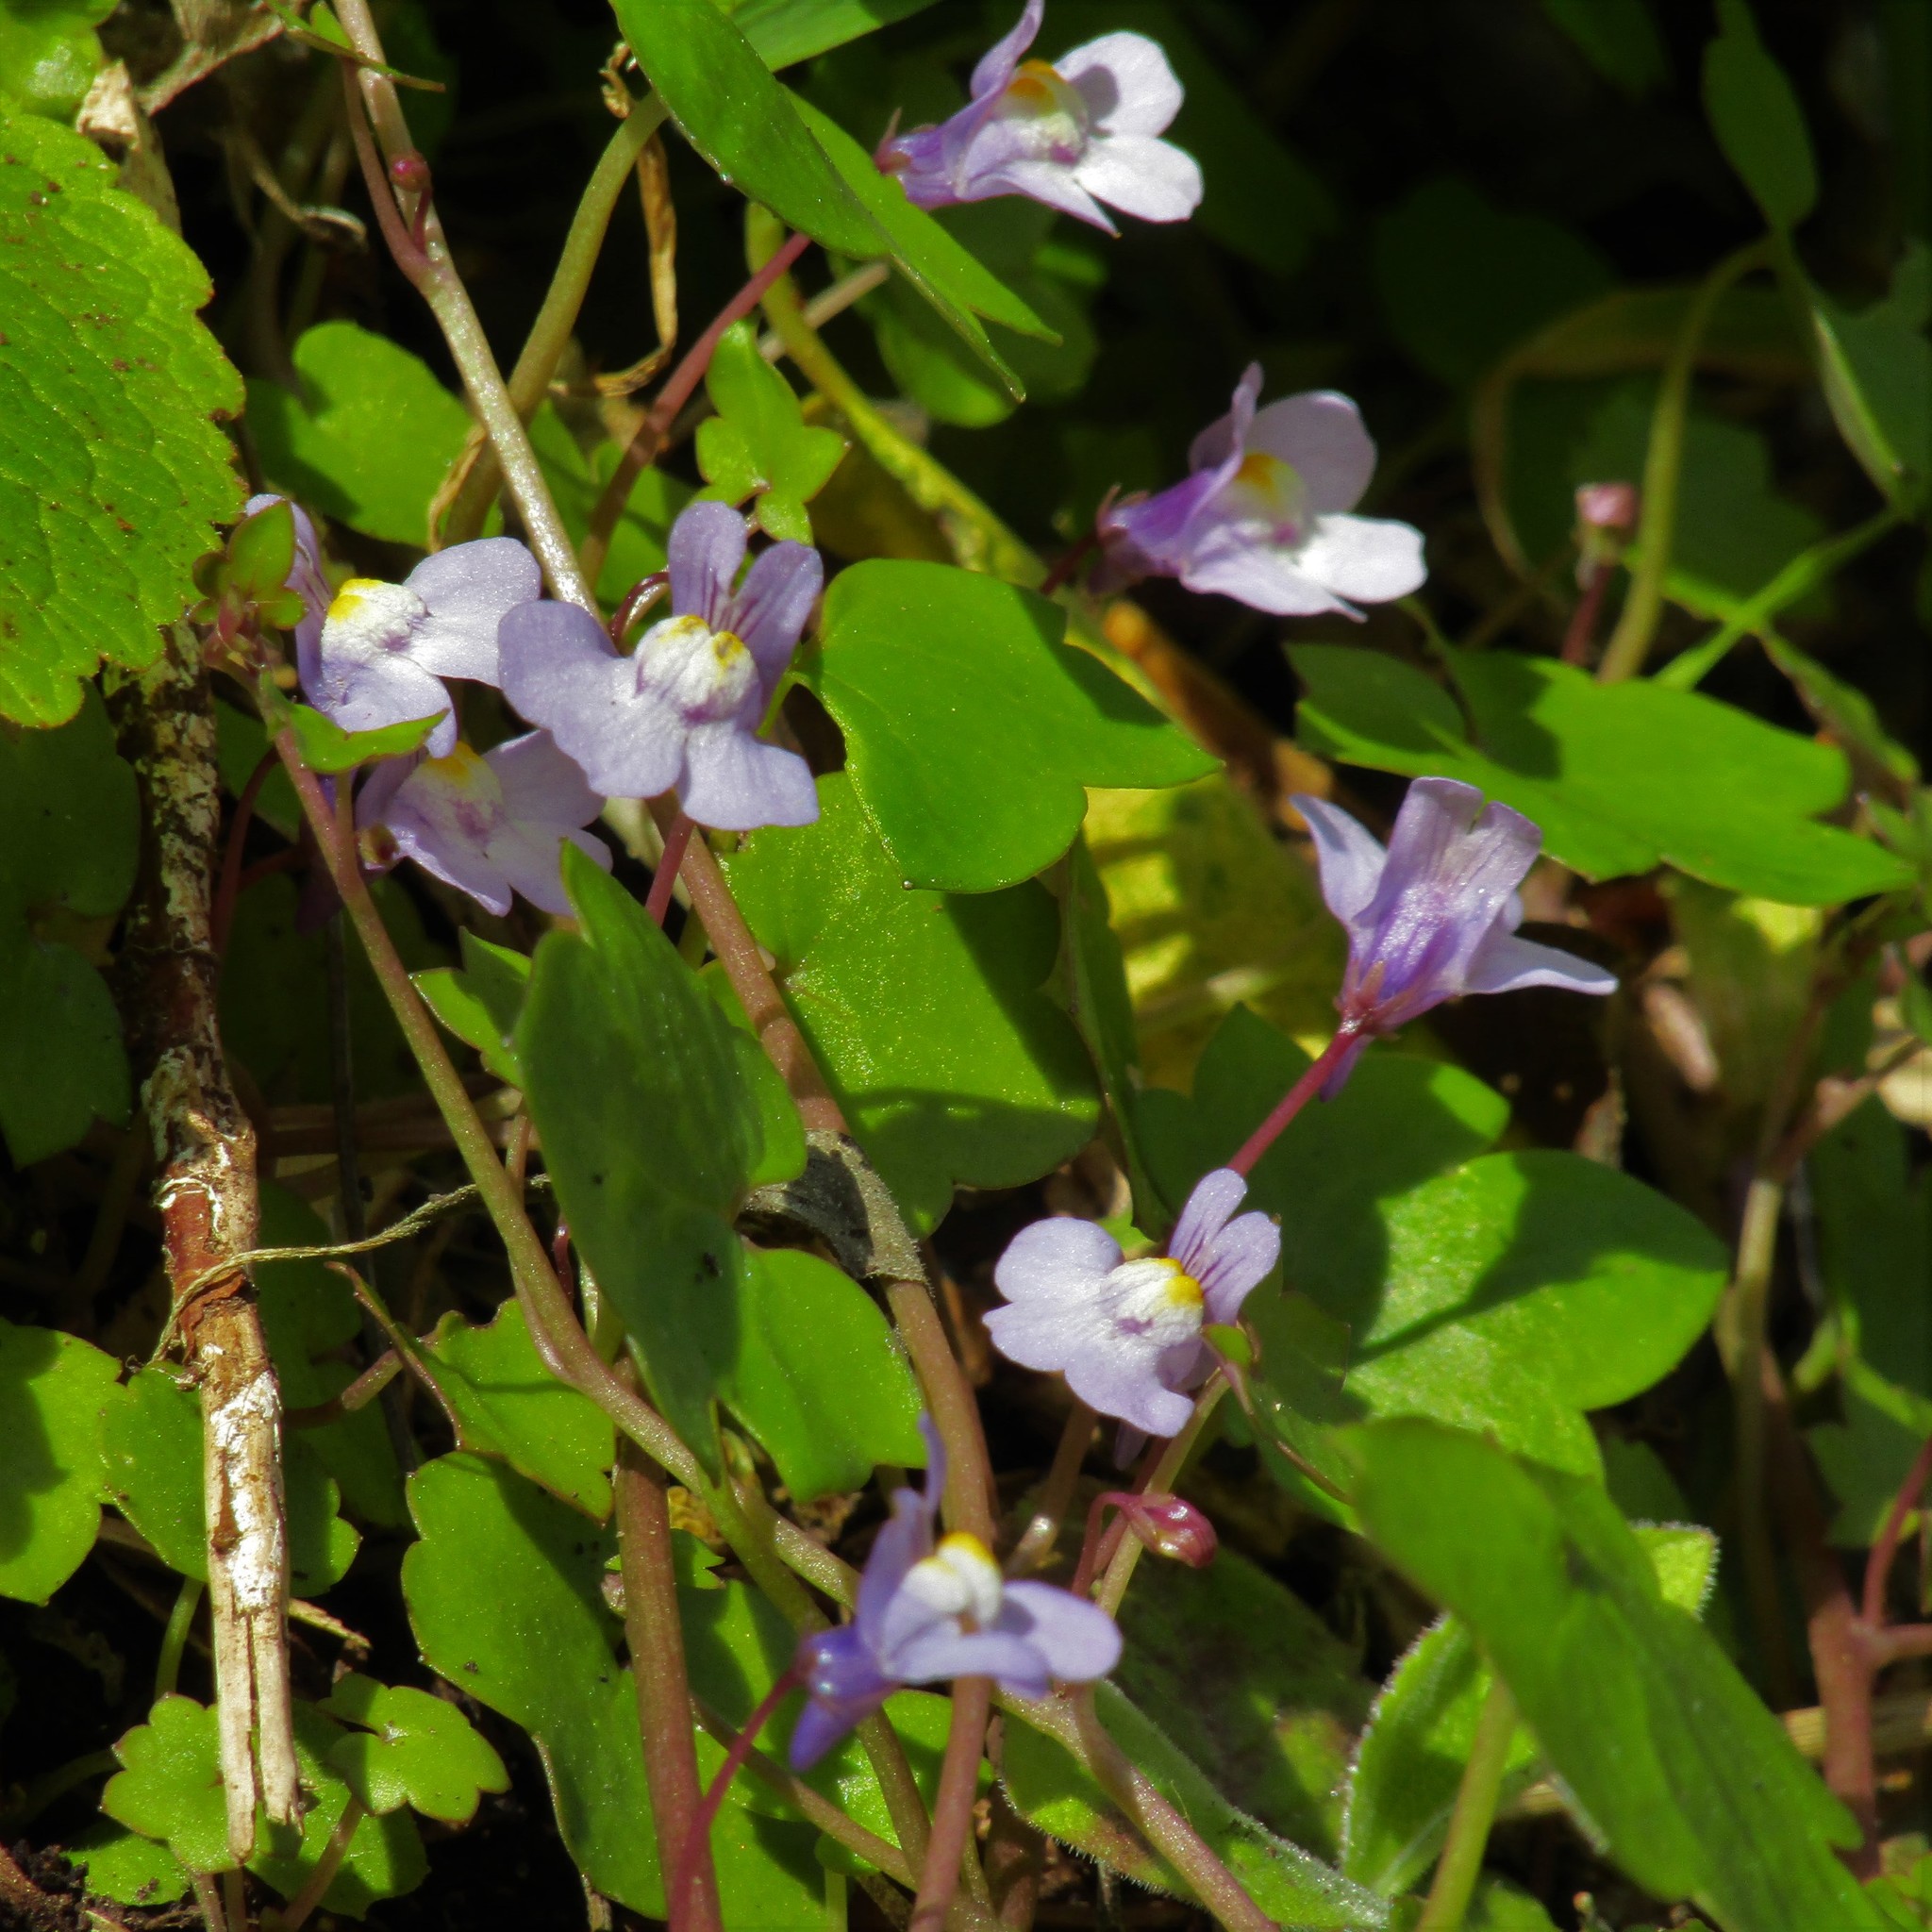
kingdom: Plantae
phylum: Tracheophyta
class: Magnoliopsida
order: Lamiales
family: Plantaginaceae
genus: Cymbalaria
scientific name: Cymbalaria muralis
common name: Ivy-leaved toadflax
